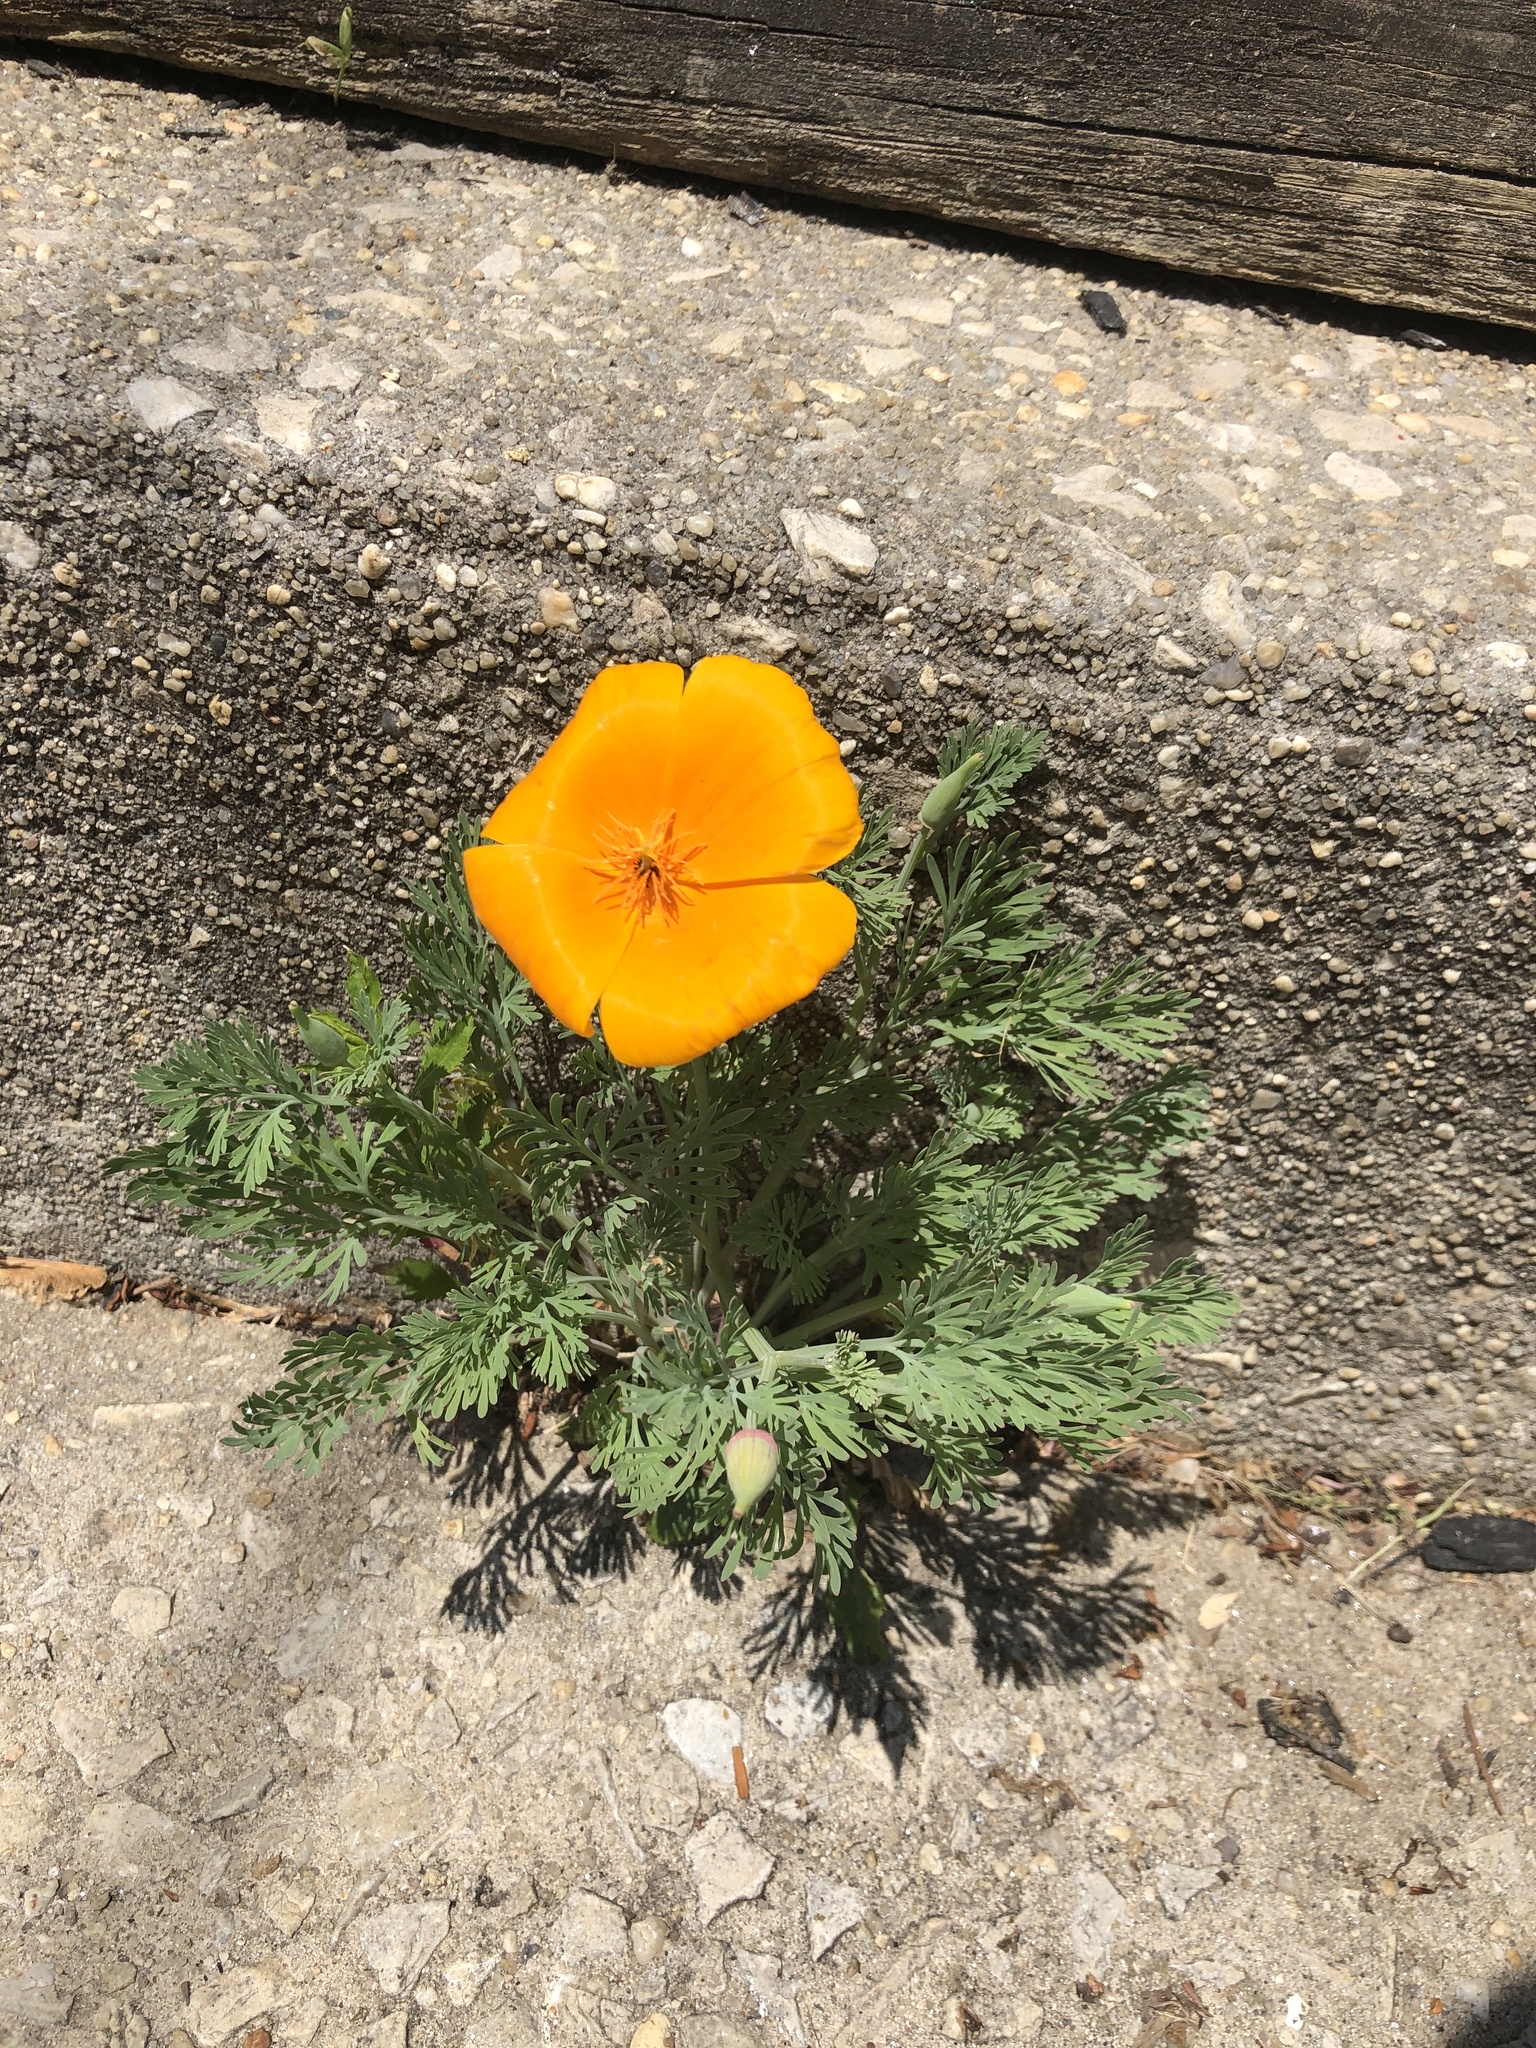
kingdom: Plantae
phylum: Tracheophyta
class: Magnoliopsida
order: Ranunculales
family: Papaveraceae
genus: Eschscholzia
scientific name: Eschscholzia californica
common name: California poppy
